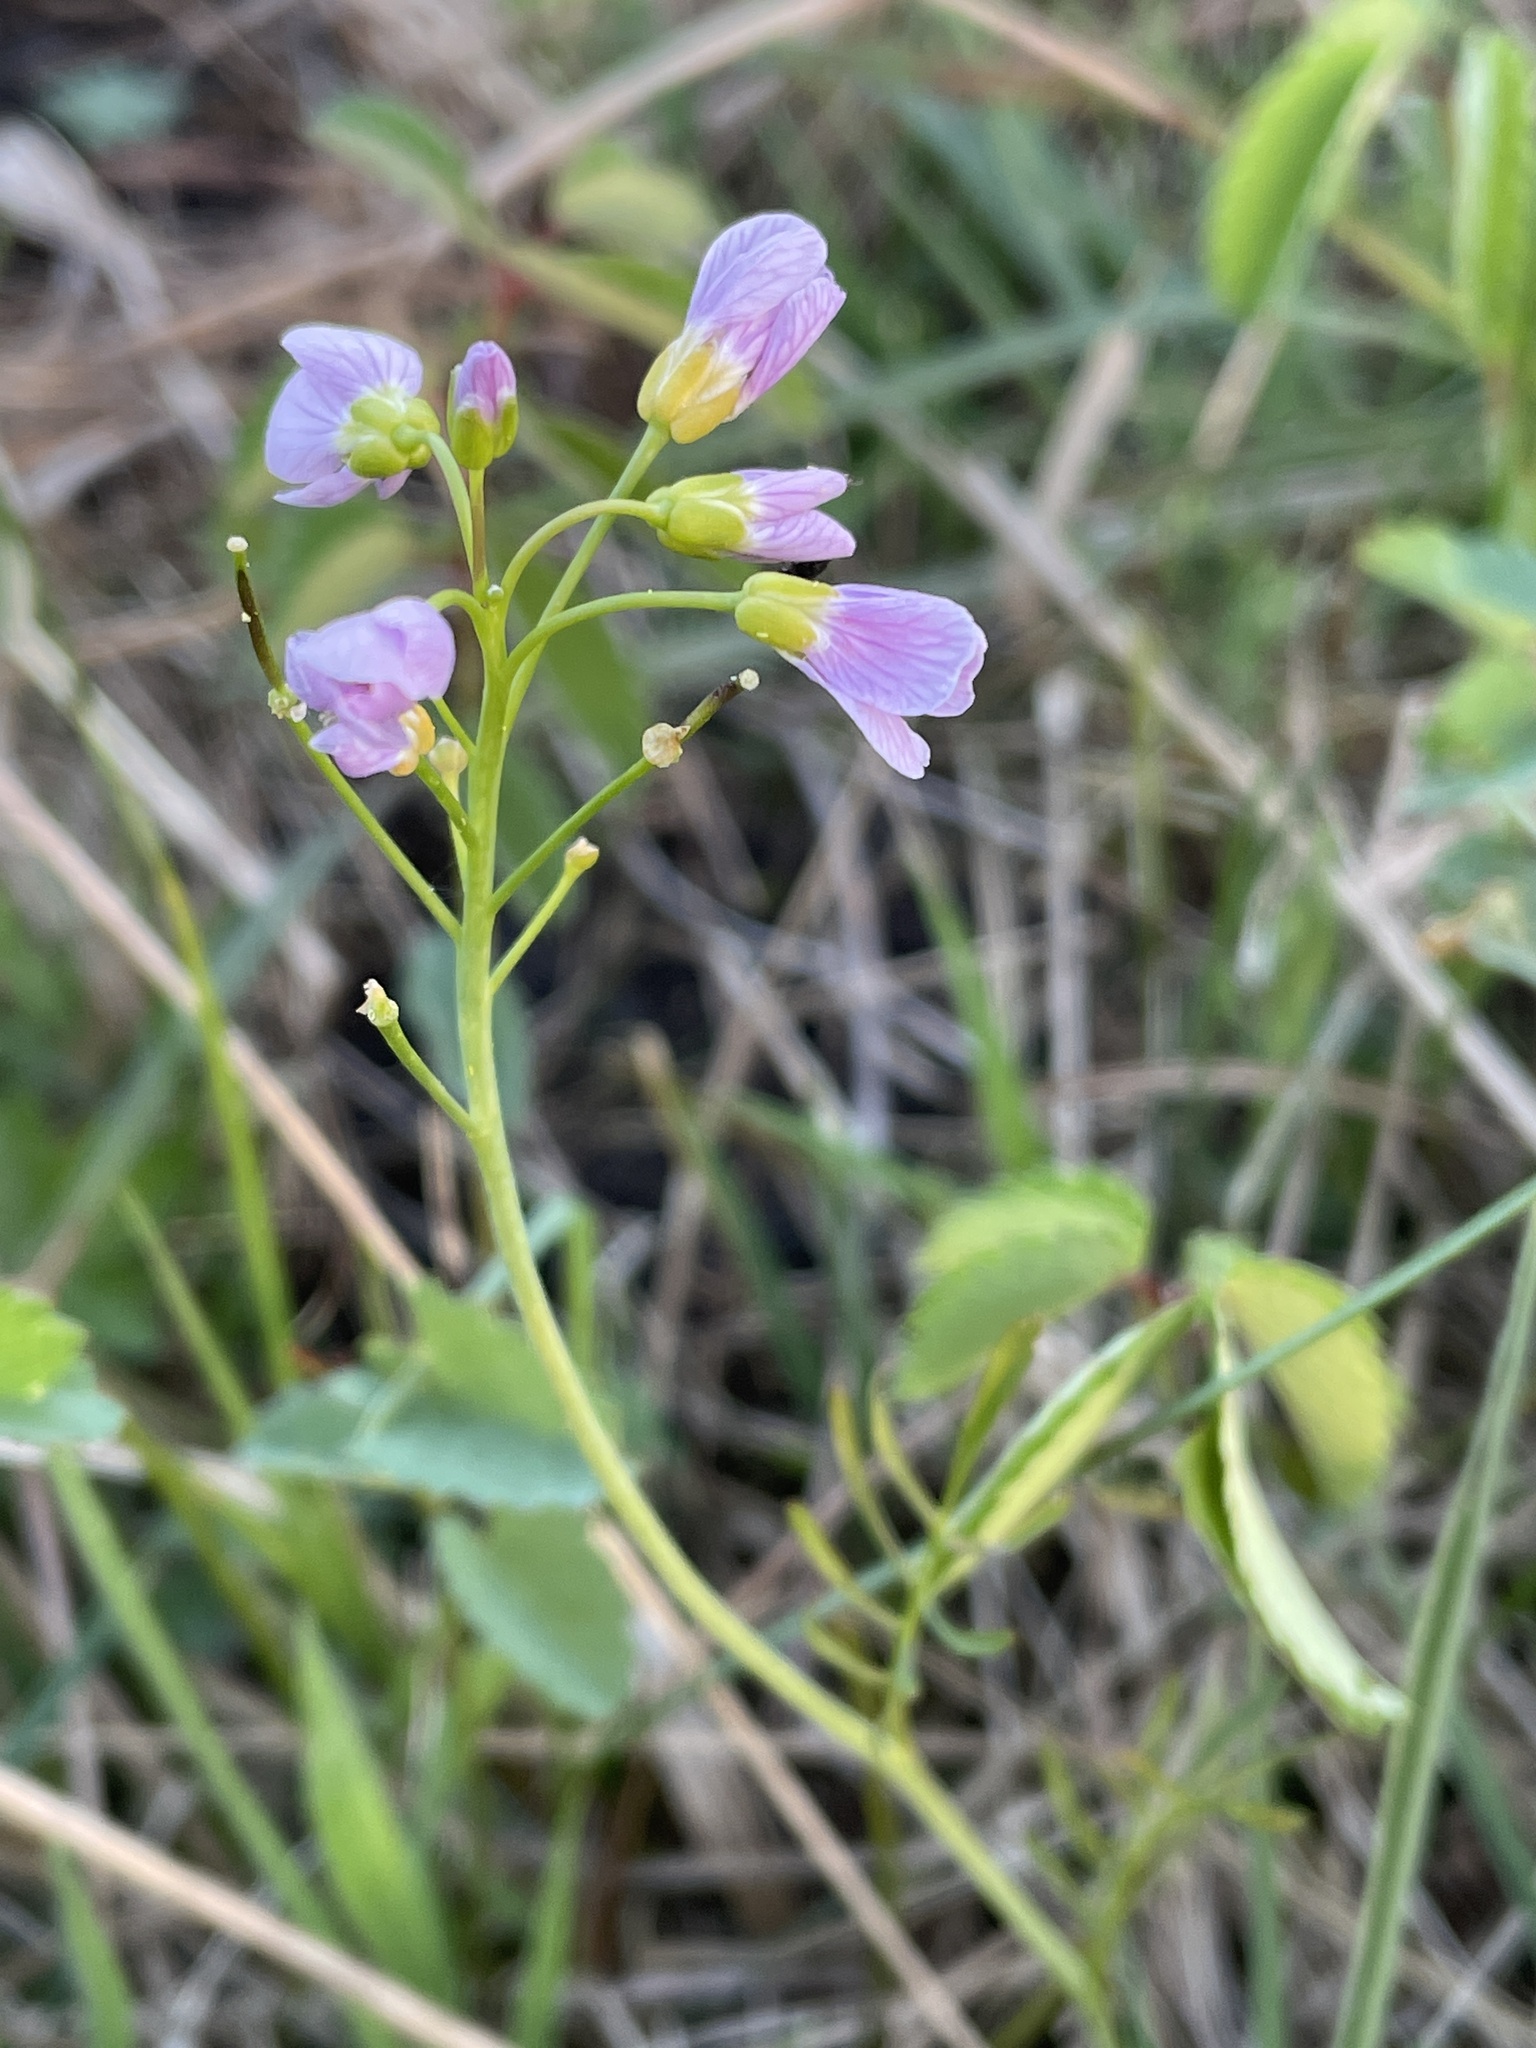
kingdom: Plantae
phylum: Tracheophyta
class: Magnoliopsida
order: Brassicales
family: Brassicaceae
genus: Cardamine
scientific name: Cardamine pratensis
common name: Cuckoo flower
